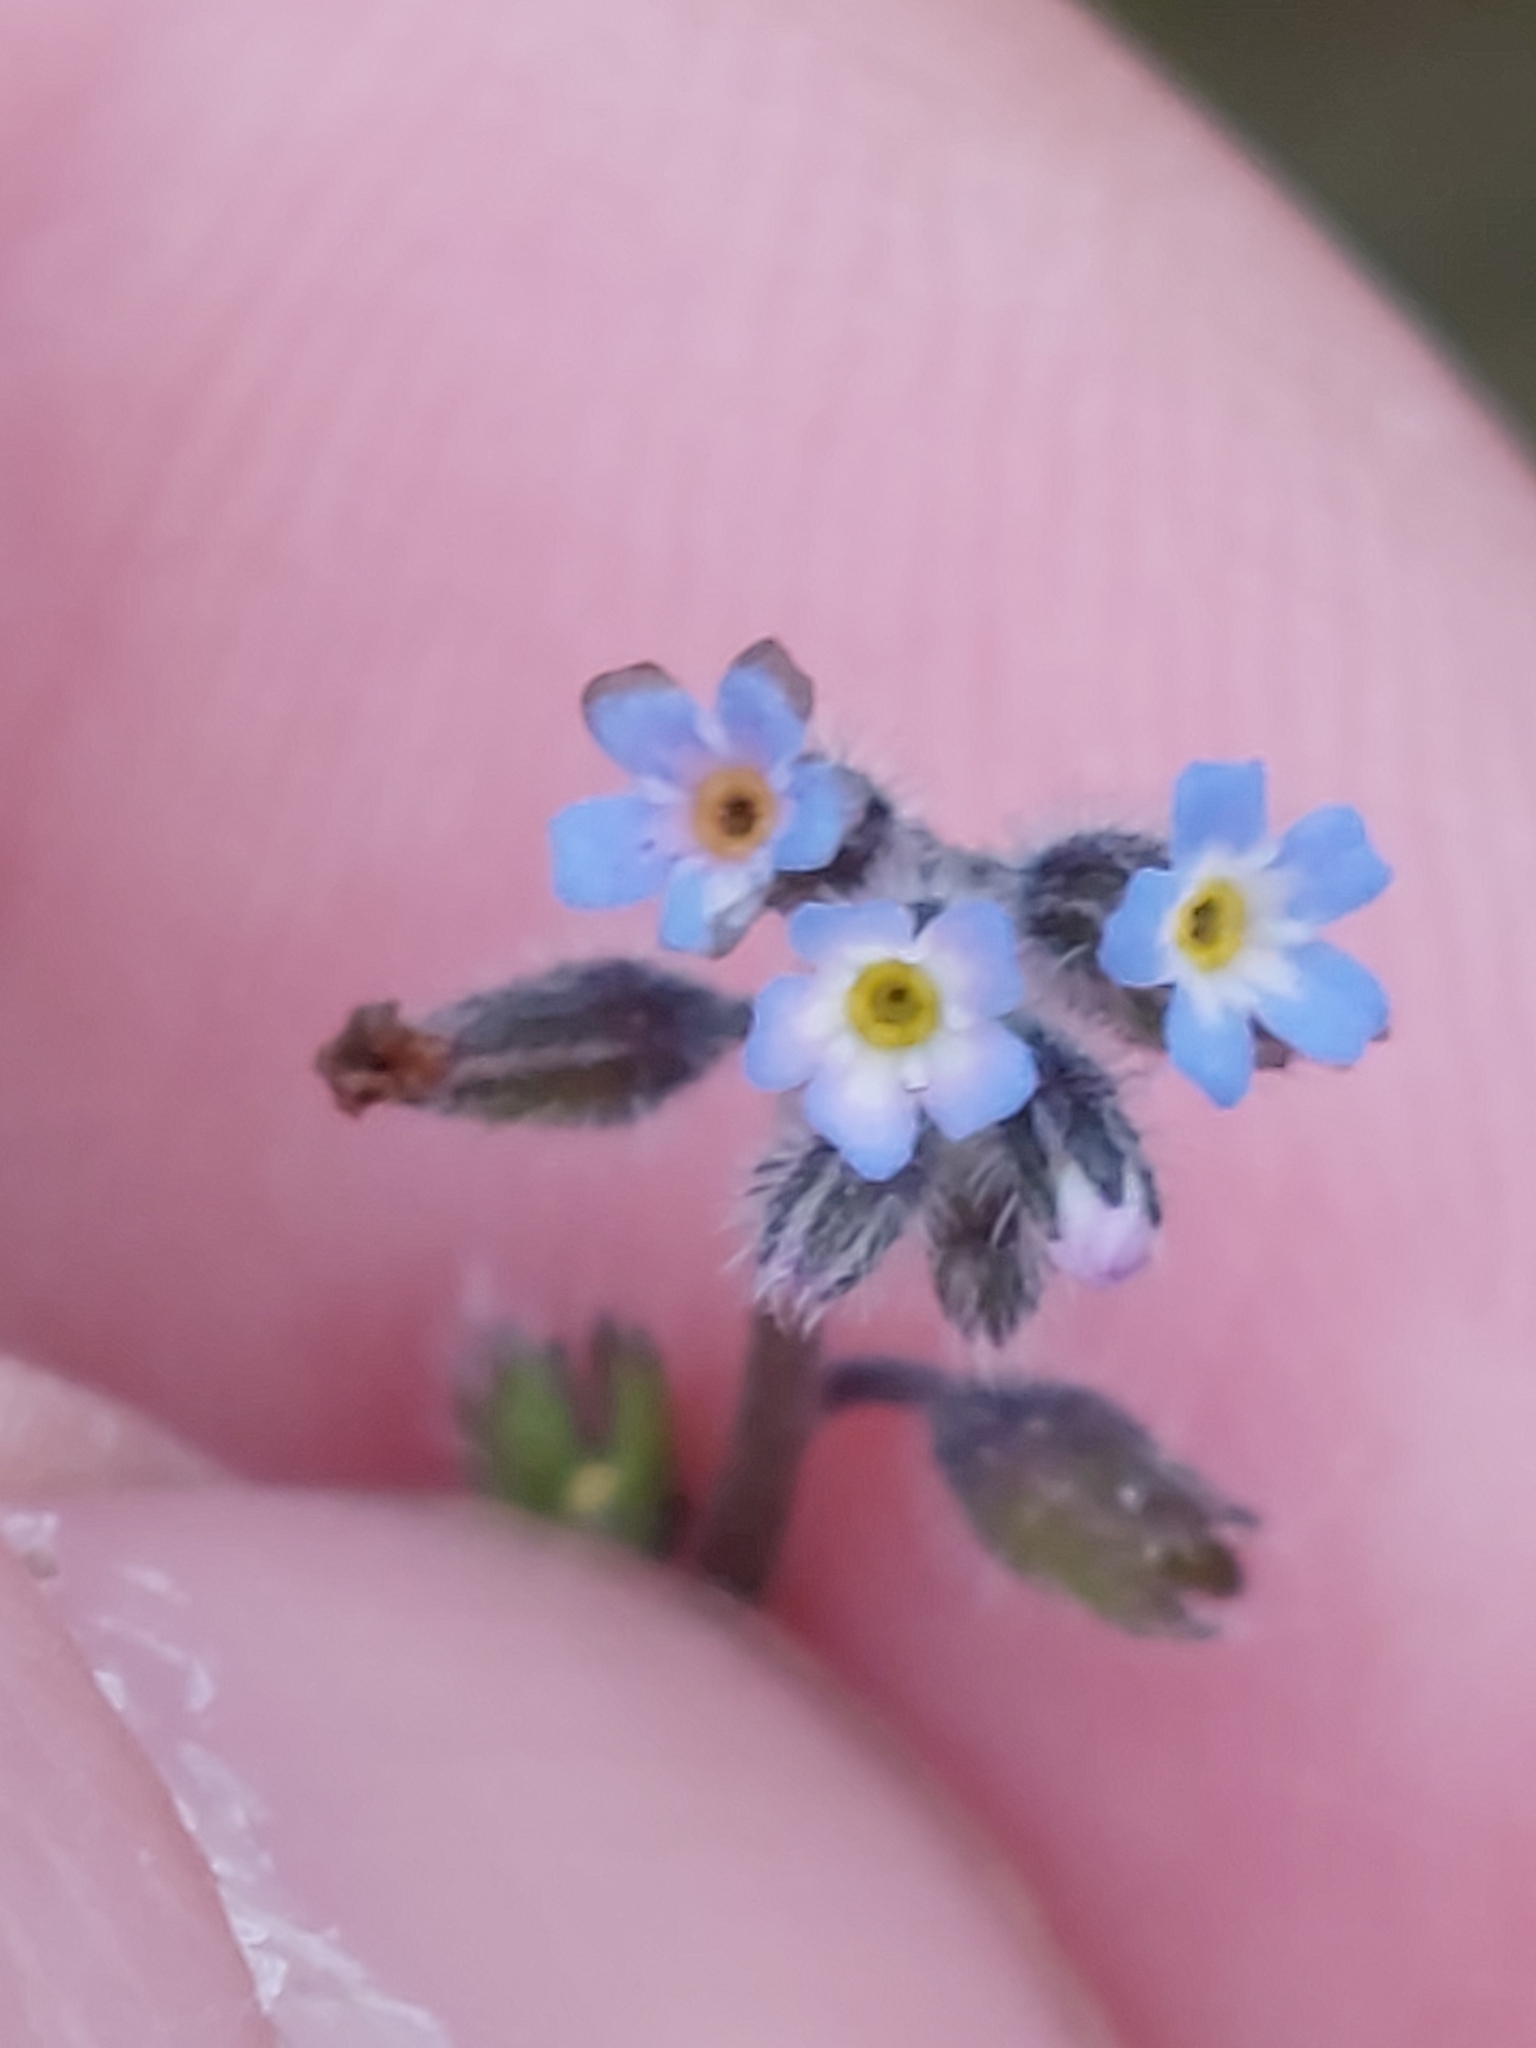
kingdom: Plantae
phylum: Tracheophyta
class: Magnoliopsida
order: Boraginales
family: Boraginaceae
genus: Myosotis
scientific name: Myosotis ramosissima
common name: Early forget-me-not
